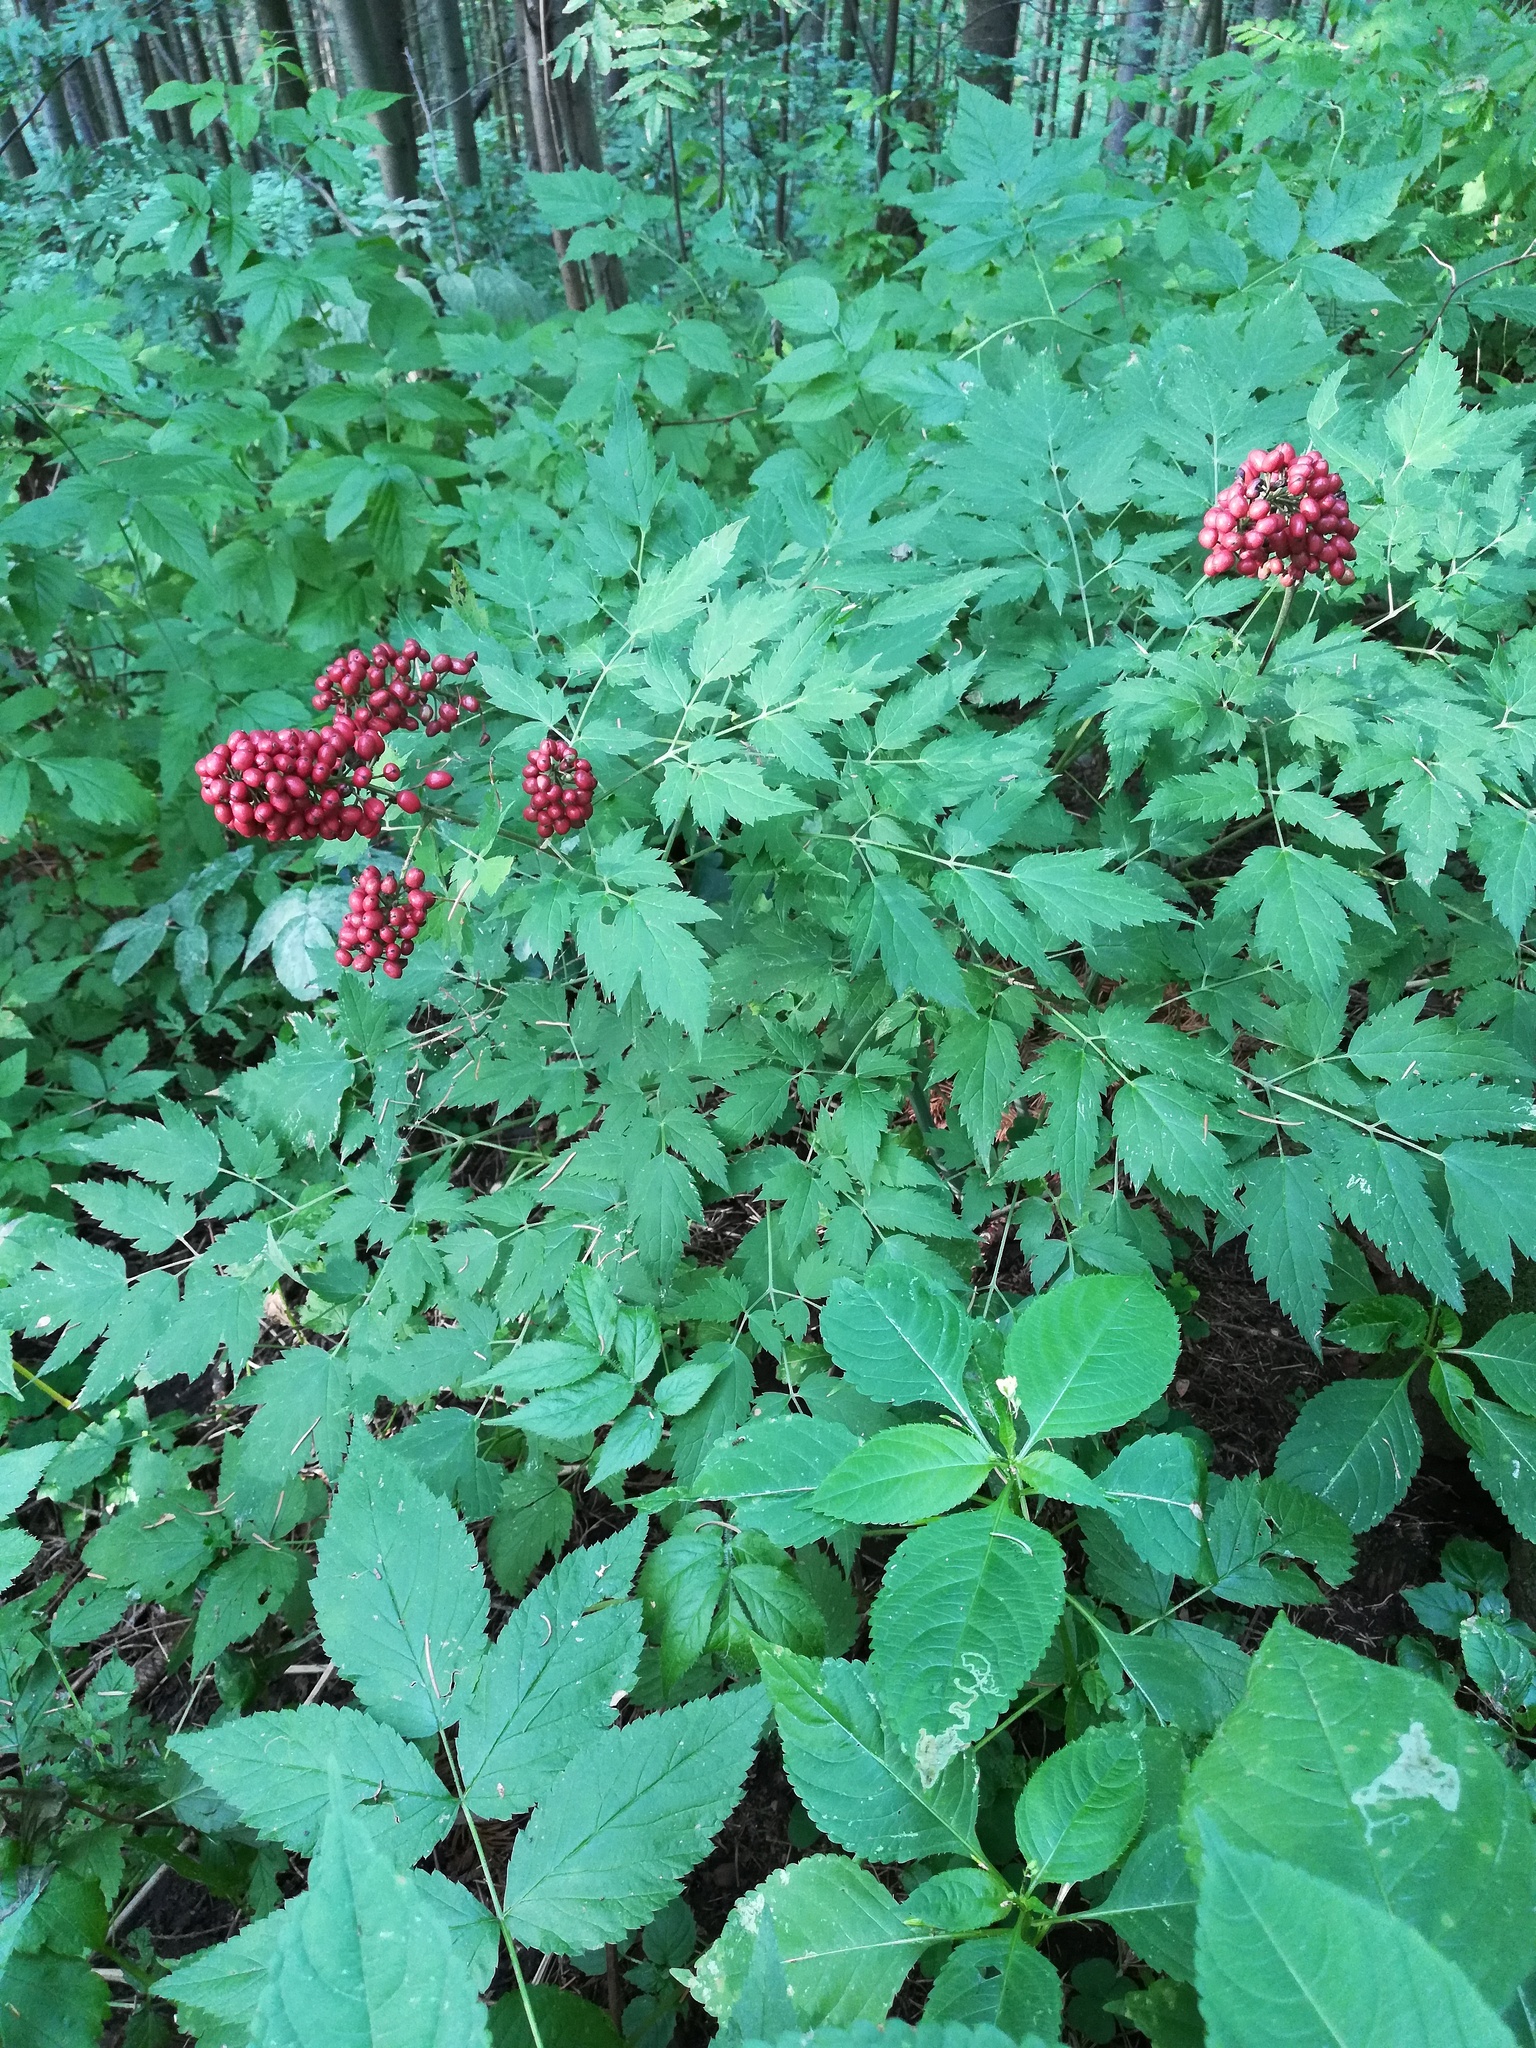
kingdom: Plantae
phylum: Tracheophyta
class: Magnoliopsida
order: Ranunculales
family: Ranunculaceae
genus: Actaea
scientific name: Actaea erythrocarpa
